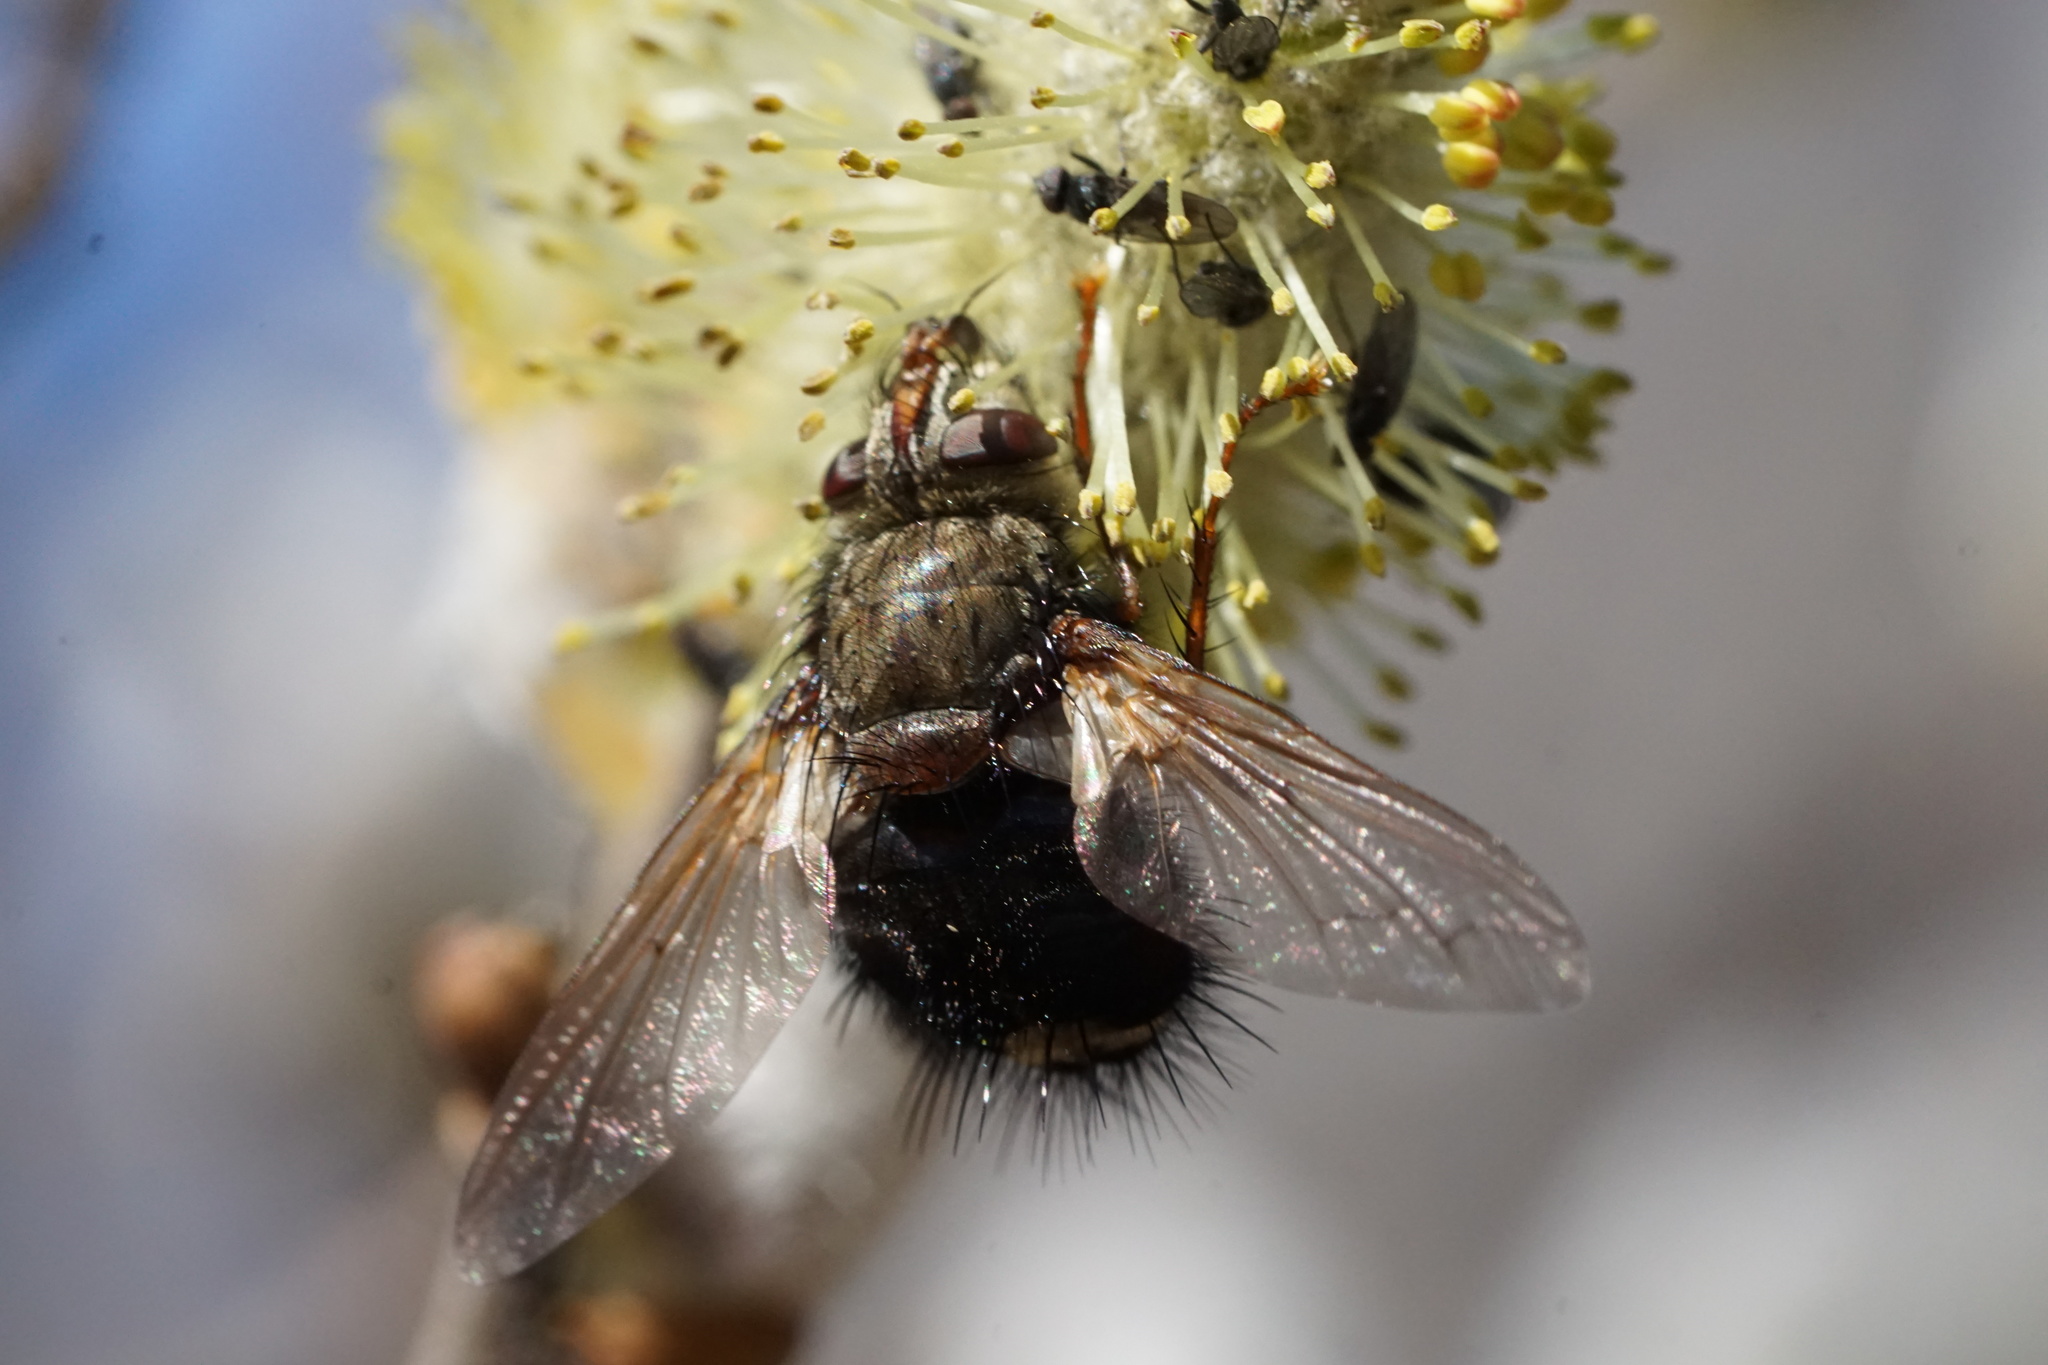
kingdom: Animalia
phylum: Arthropoda
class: Insecta
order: Diptera
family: Tachinidae
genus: Epalpus
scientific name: Epalpus signifer
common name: Early tachinid fly
